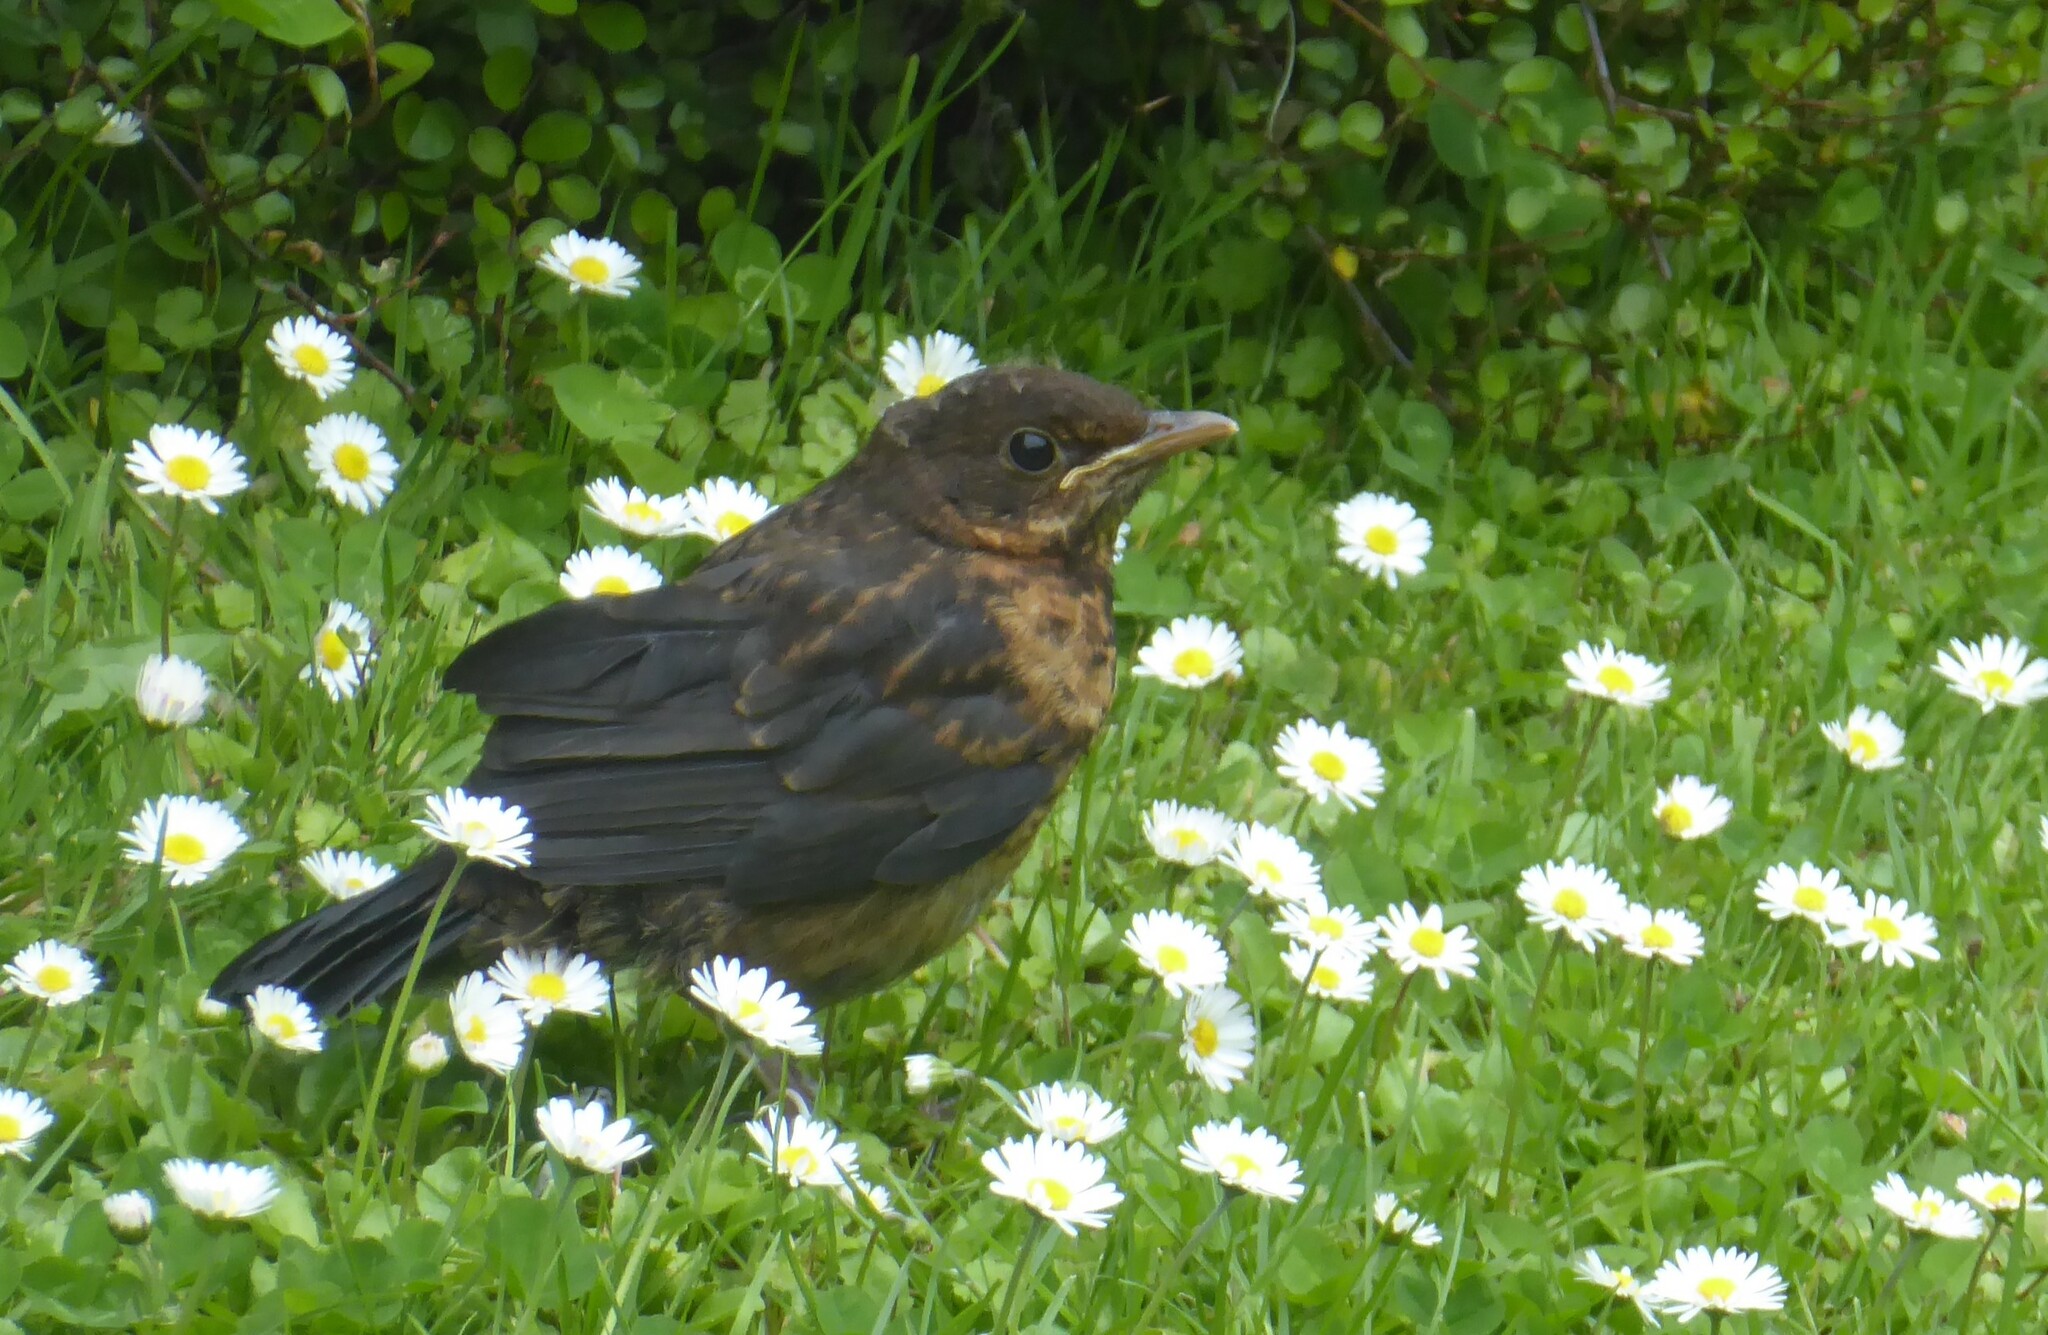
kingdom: Animalia
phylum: Chordata
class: Aves
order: Passeriformes
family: Turdidae
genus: Turdus
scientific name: Turdus merula
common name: Common blackbird
